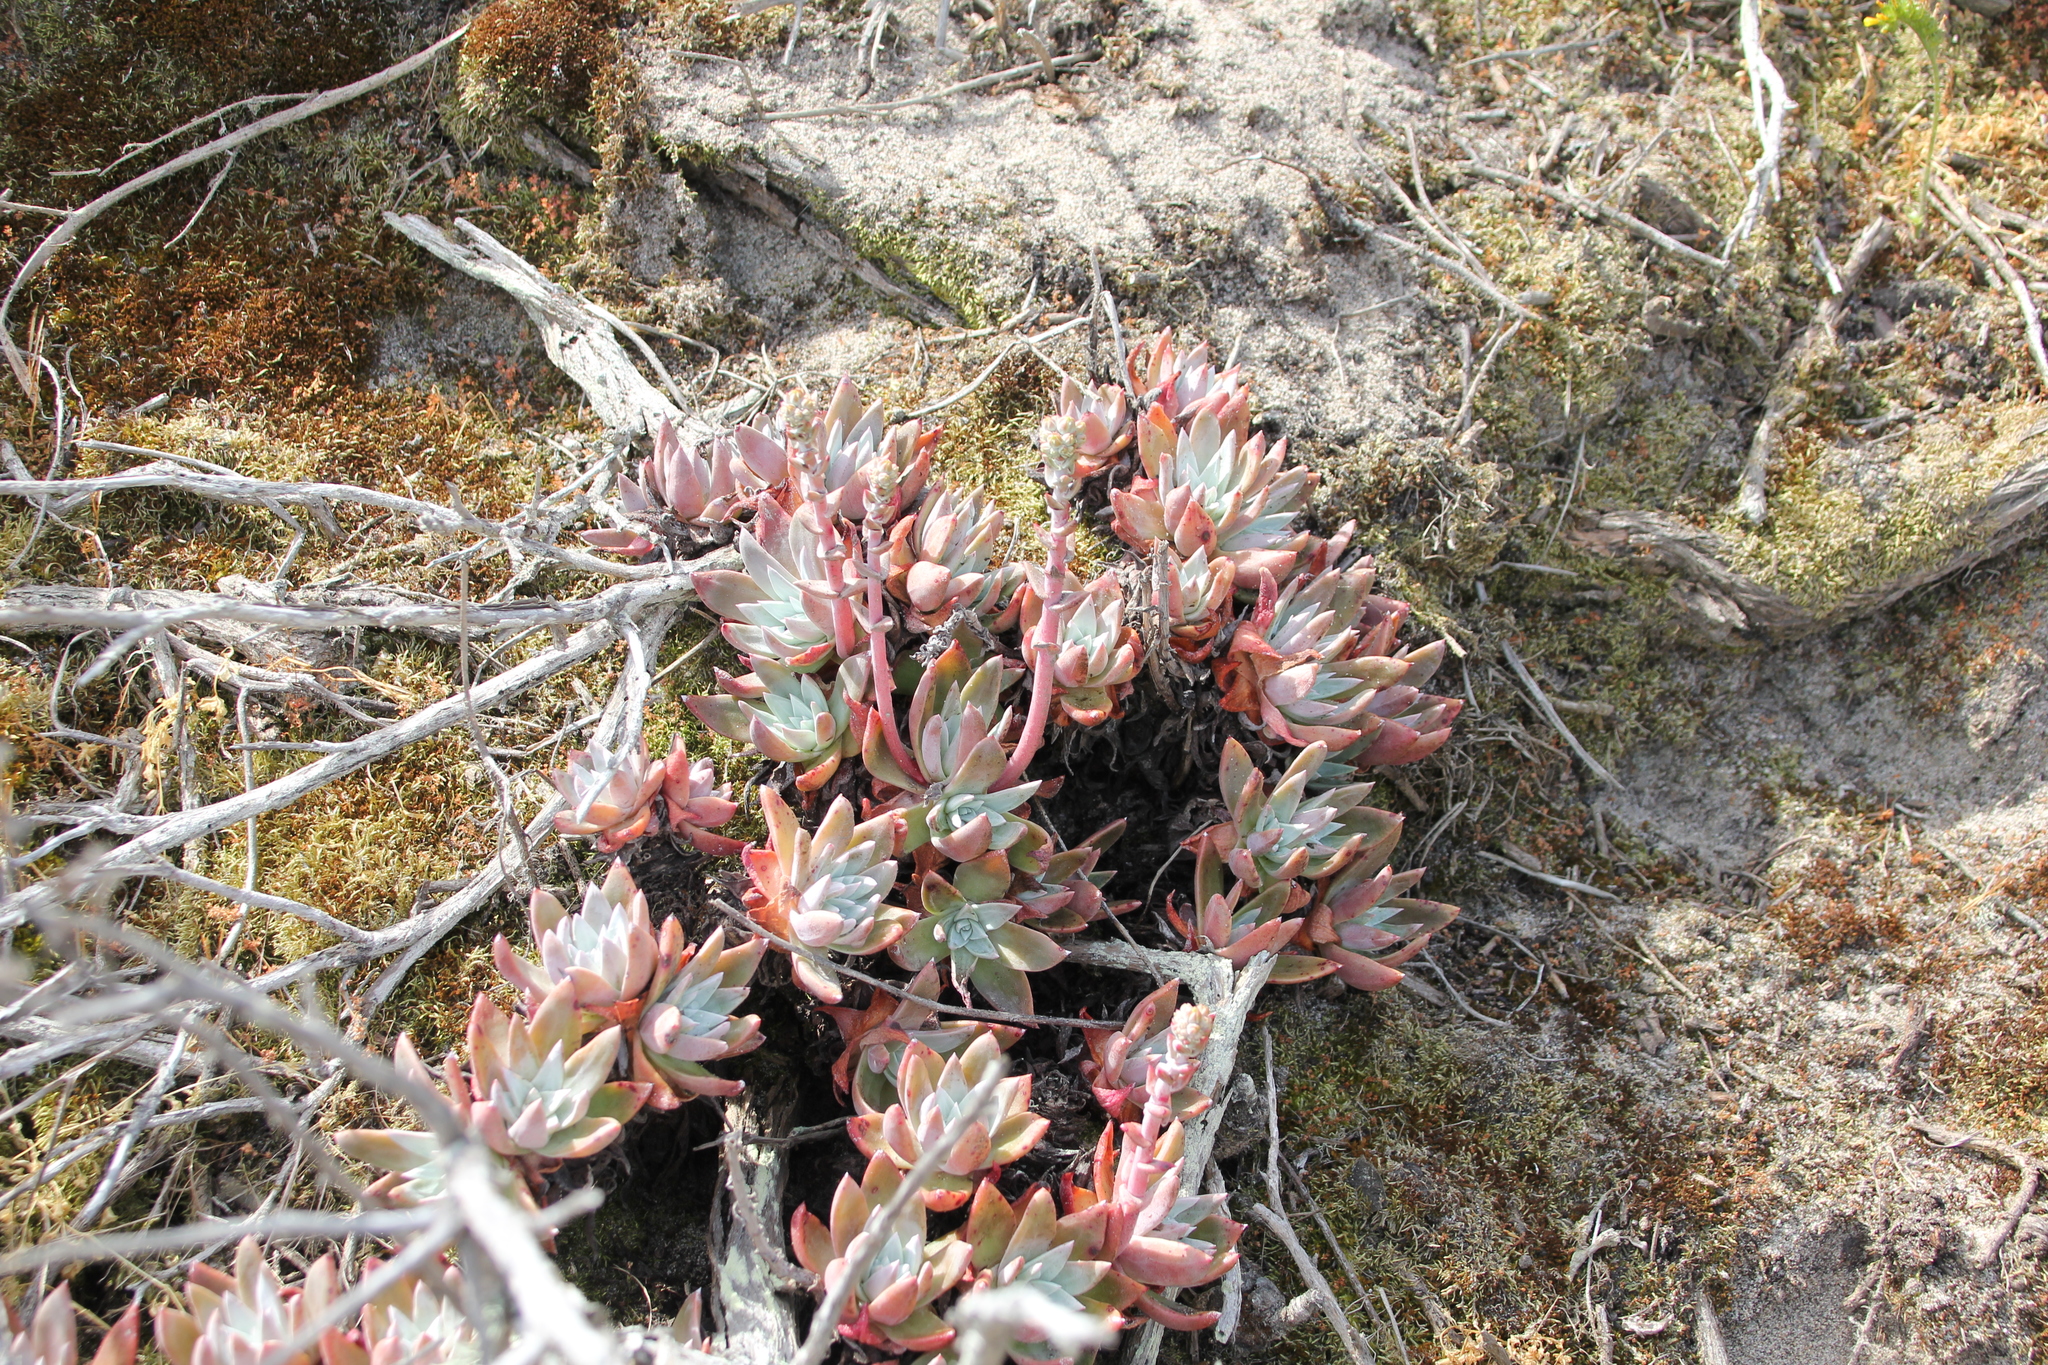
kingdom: Plantae
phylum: Tracheophyta
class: Magnoliopsida
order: Saxifragales
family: Crassulaceae
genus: Dudleya
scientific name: Dudleya caespitosa
